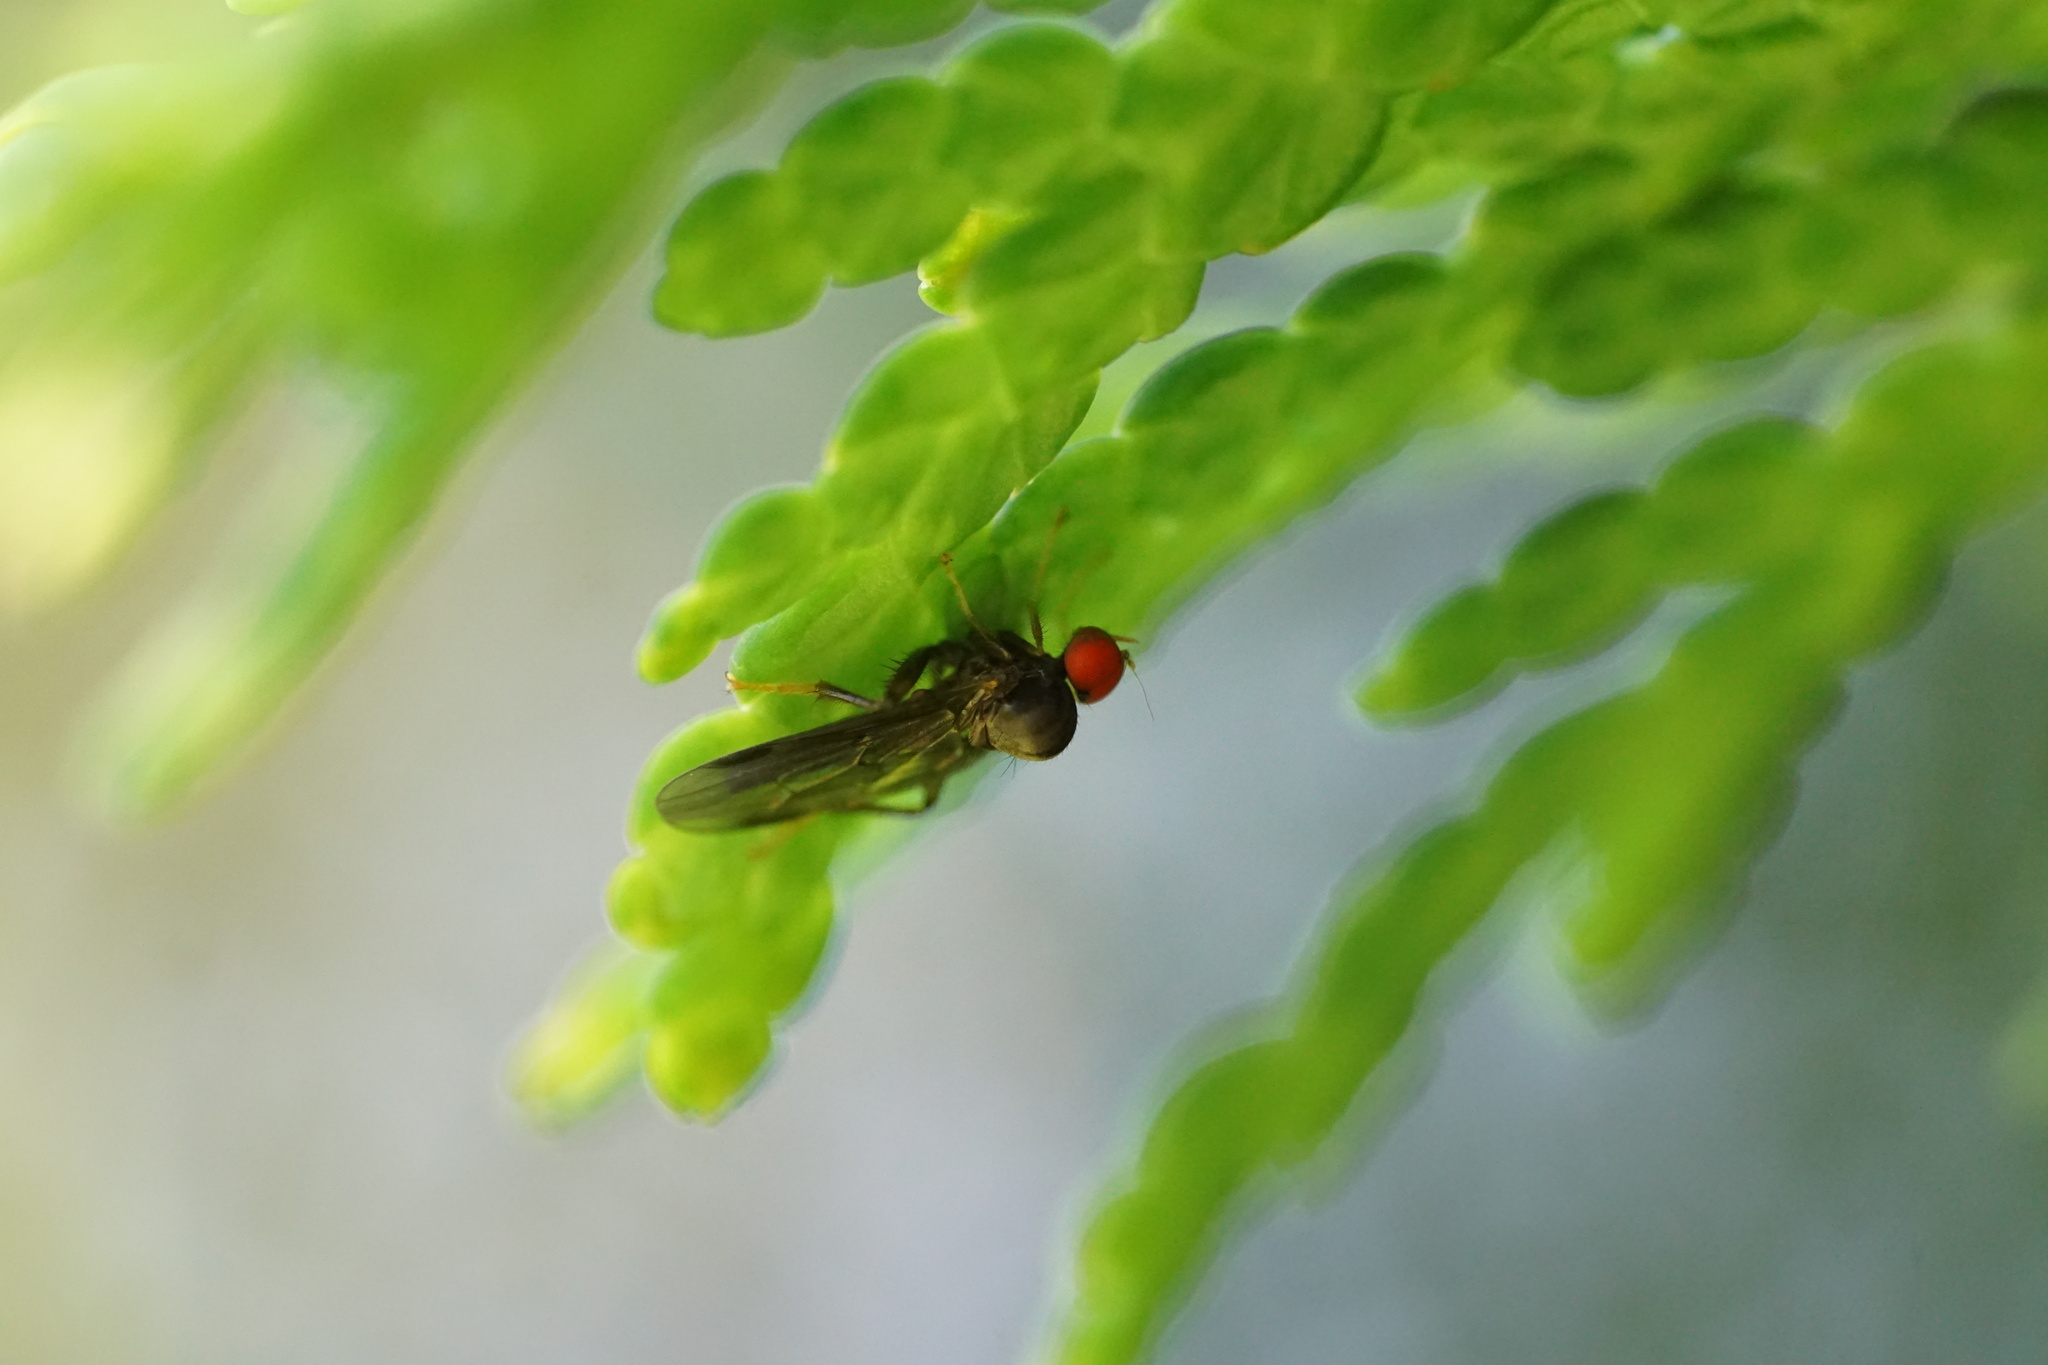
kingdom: Animalia
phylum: Arthropoda
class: Insecta
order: Diptera
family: Hybotidae
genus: Syneches
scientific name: Syneches thoracicus
